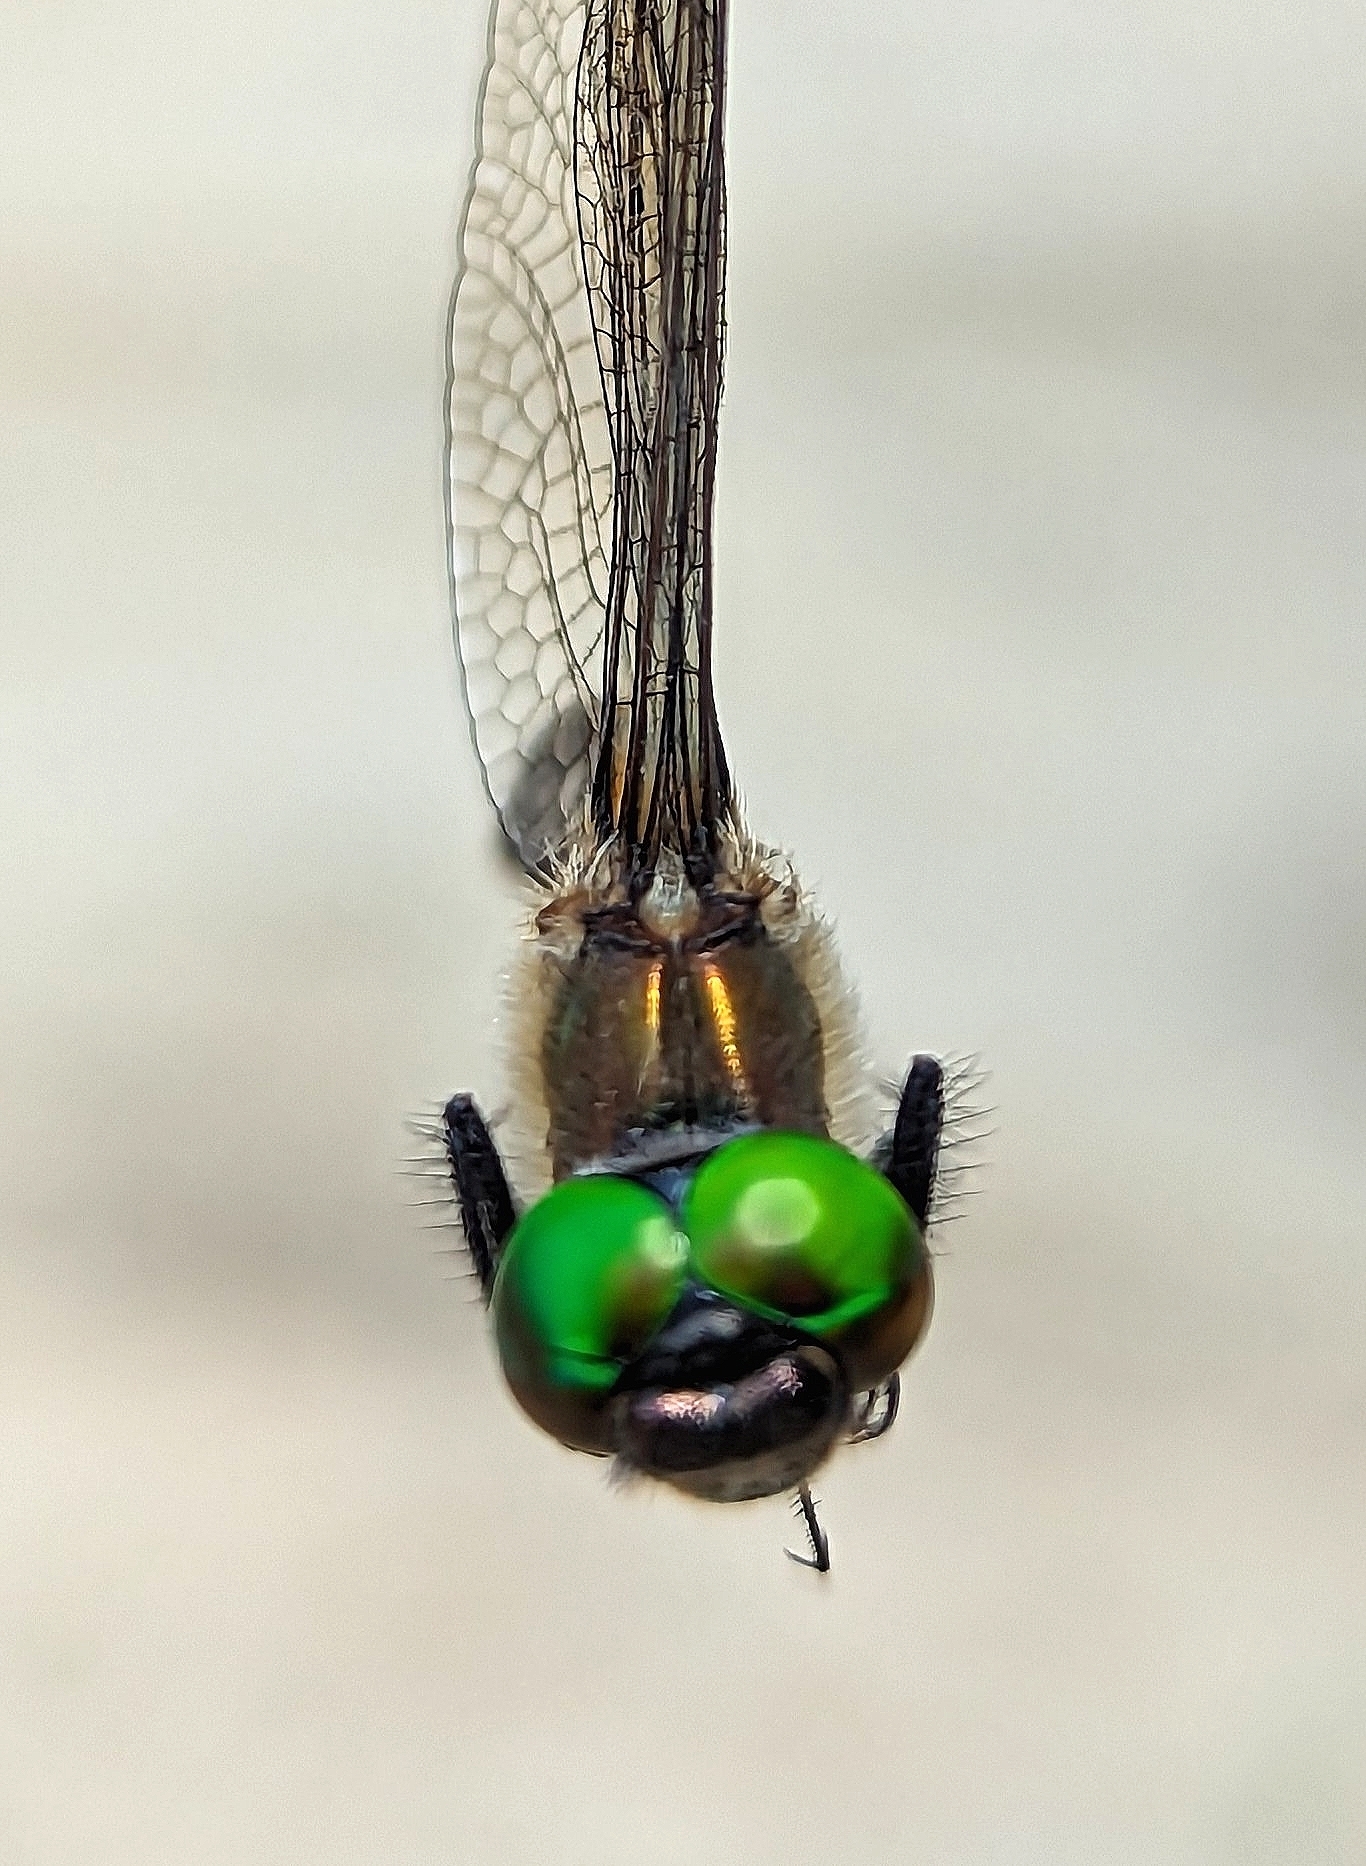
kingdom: Animalia
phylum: Arthropoda
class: Insecta
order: Odonata
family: Corduliidae
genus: Dorocordulia
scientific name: Dorocordulia libera
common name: Racket-tailed emerald
